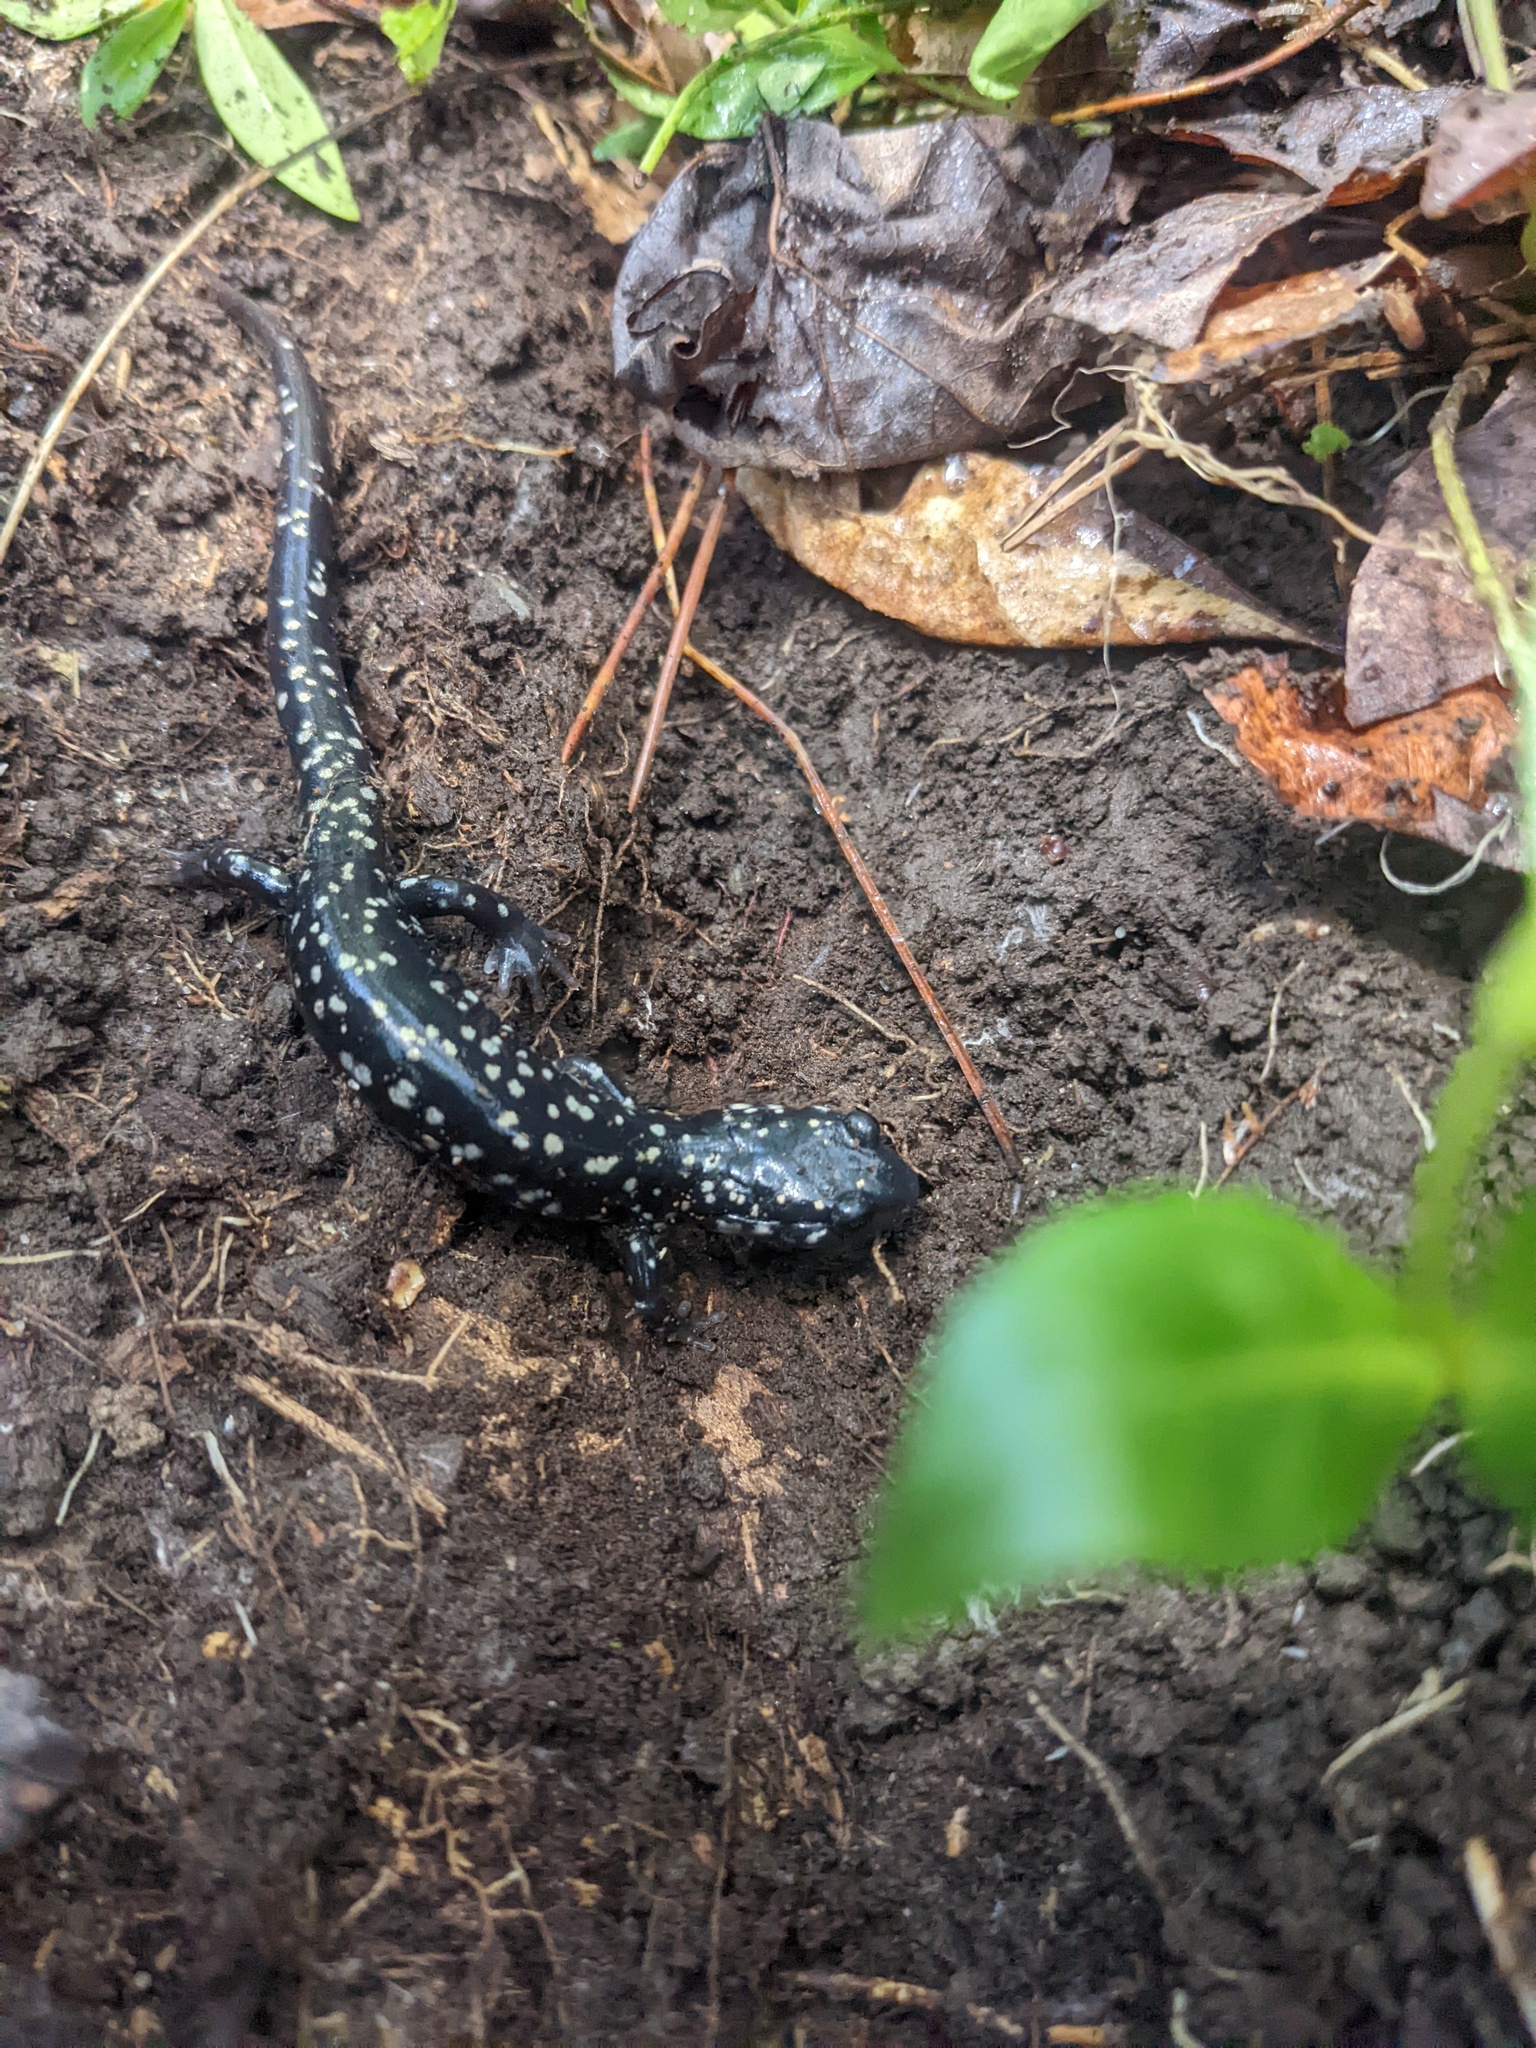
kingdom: Animalia
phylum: Chordata
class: Amphibia
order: Caudata
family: Plethodontidae
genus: Plethodon
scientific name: Plethodon glutinosus
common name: Northern slimy salamander
